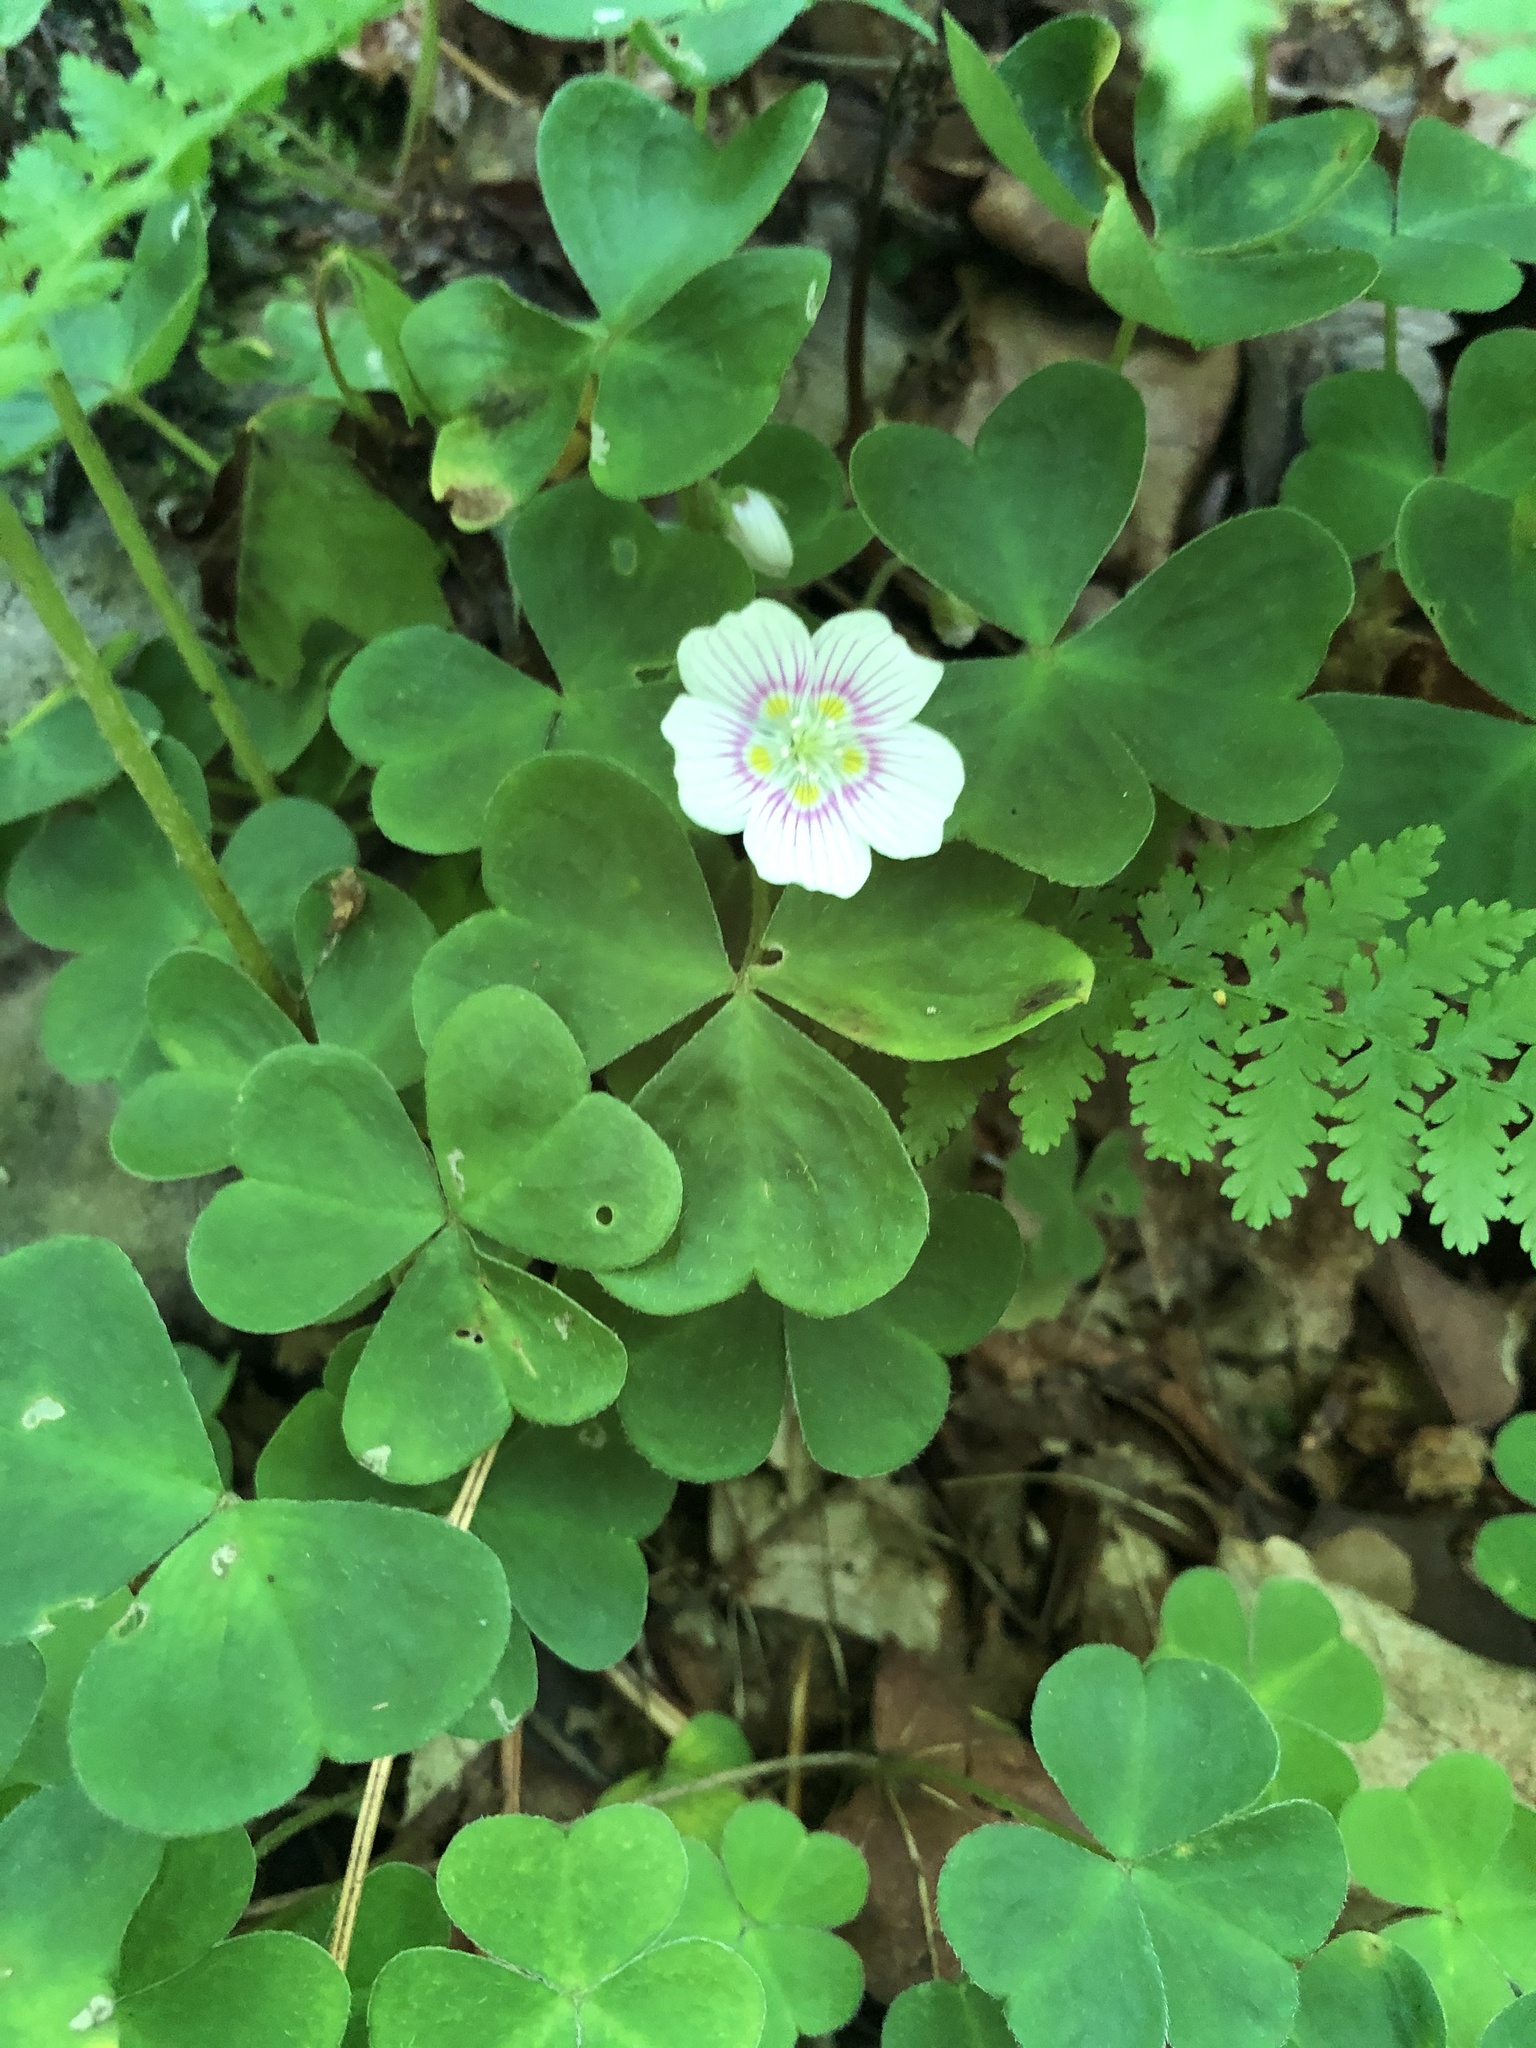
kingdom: Plantae
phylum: Tracheophyta
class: Magnoliopsida
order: Oxalidales
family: Oxalidaceae
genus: Oxalis
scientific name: Oxalis montana
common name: American wood-sorrel
